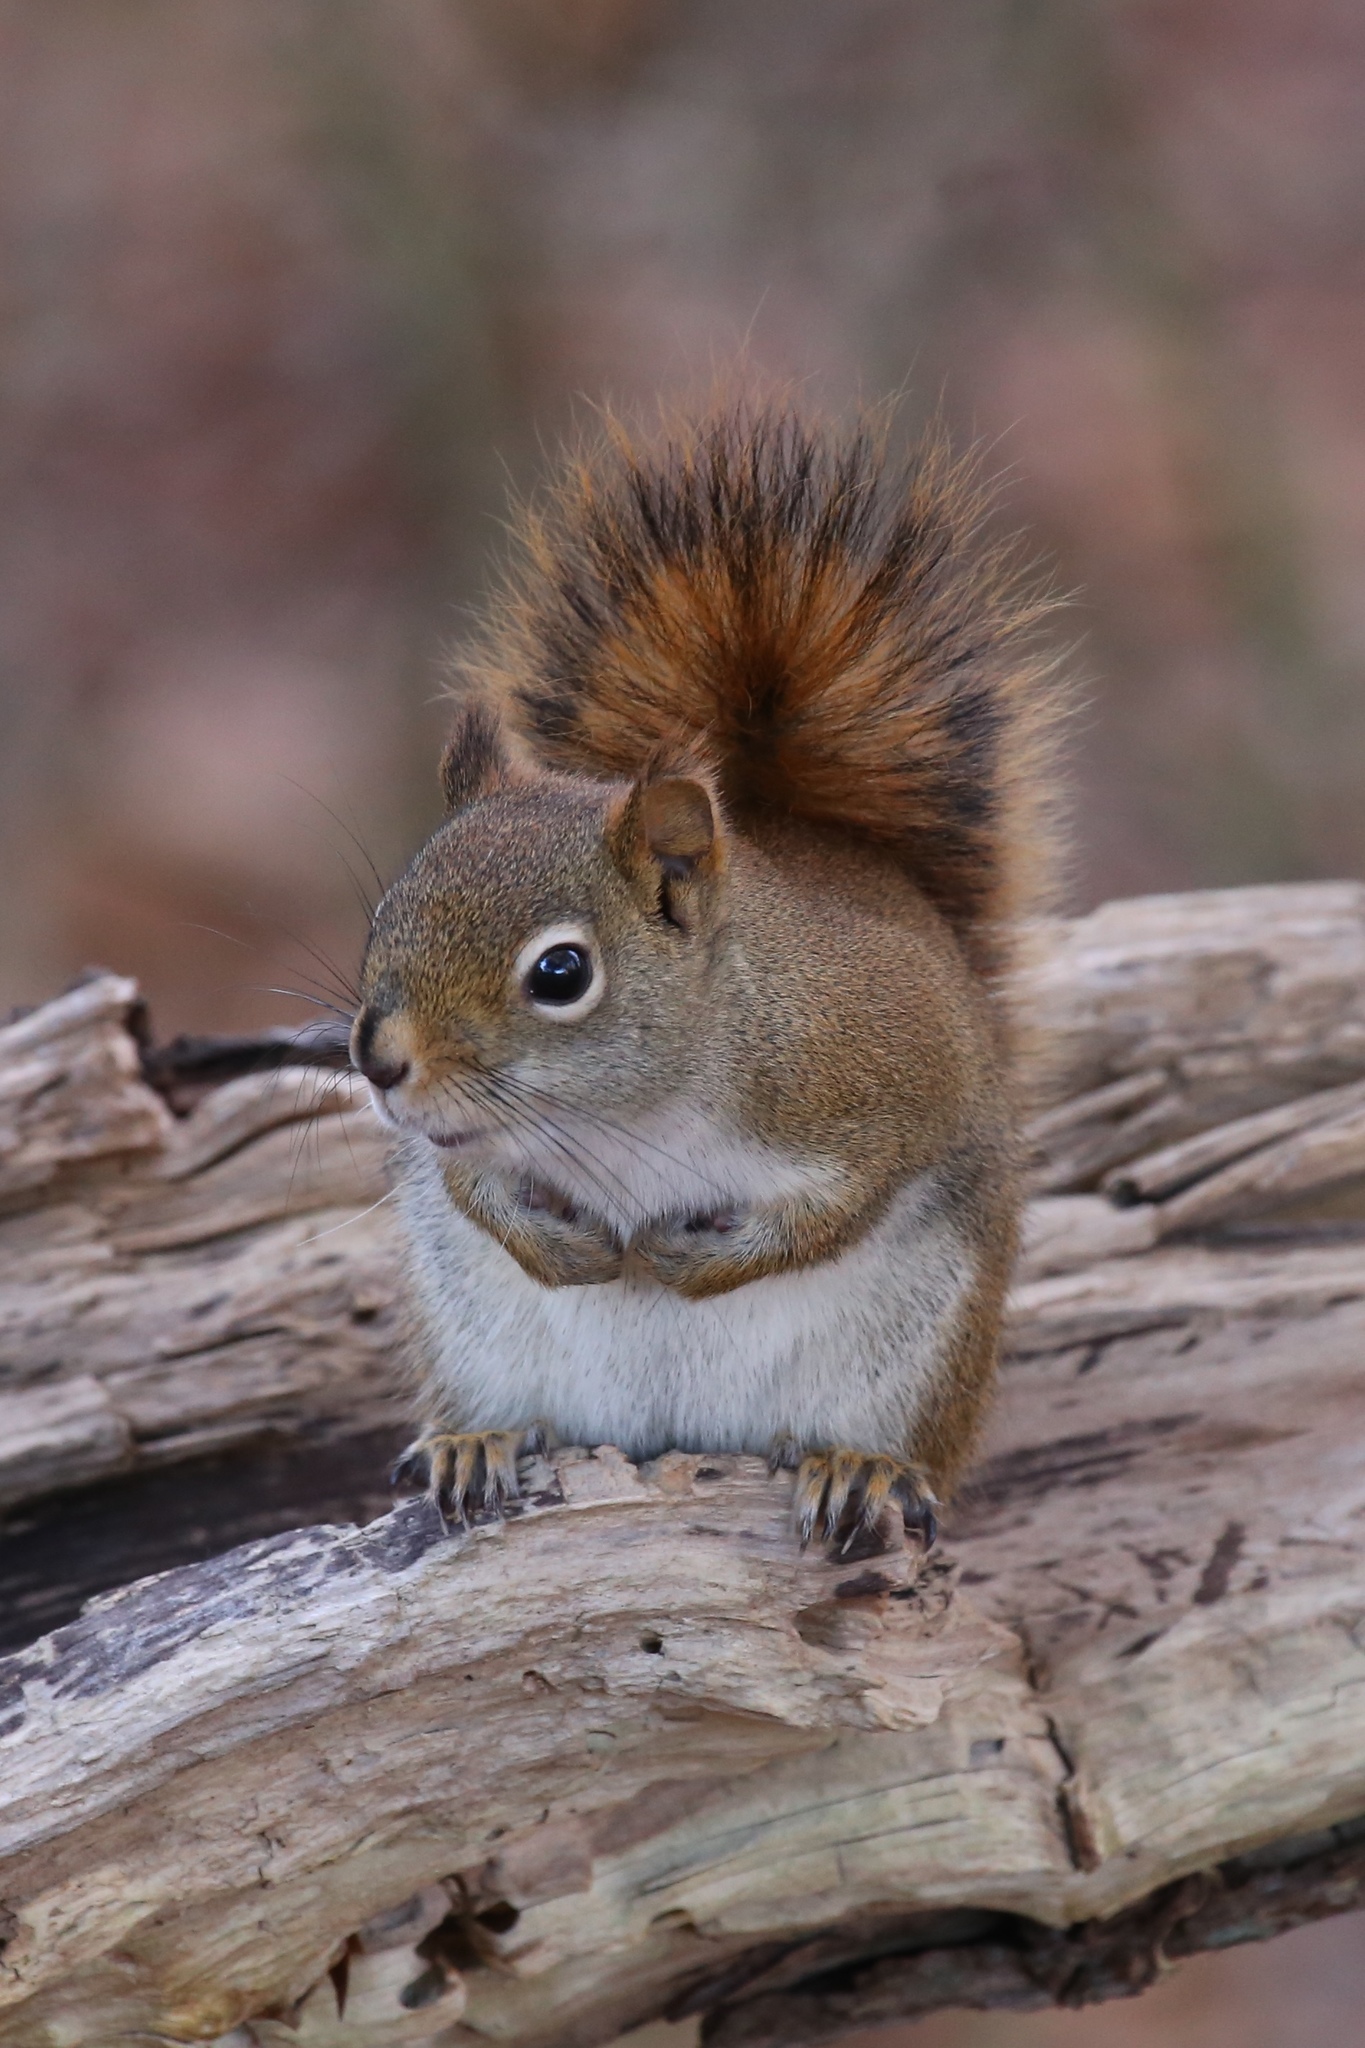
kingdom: Animalia
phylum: Chordata
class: Mammalia
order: Rodentia
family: Sciuridae
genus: Tamiasciurus
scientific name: Tamiasciurus hudsonicus
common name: Red squirrel
